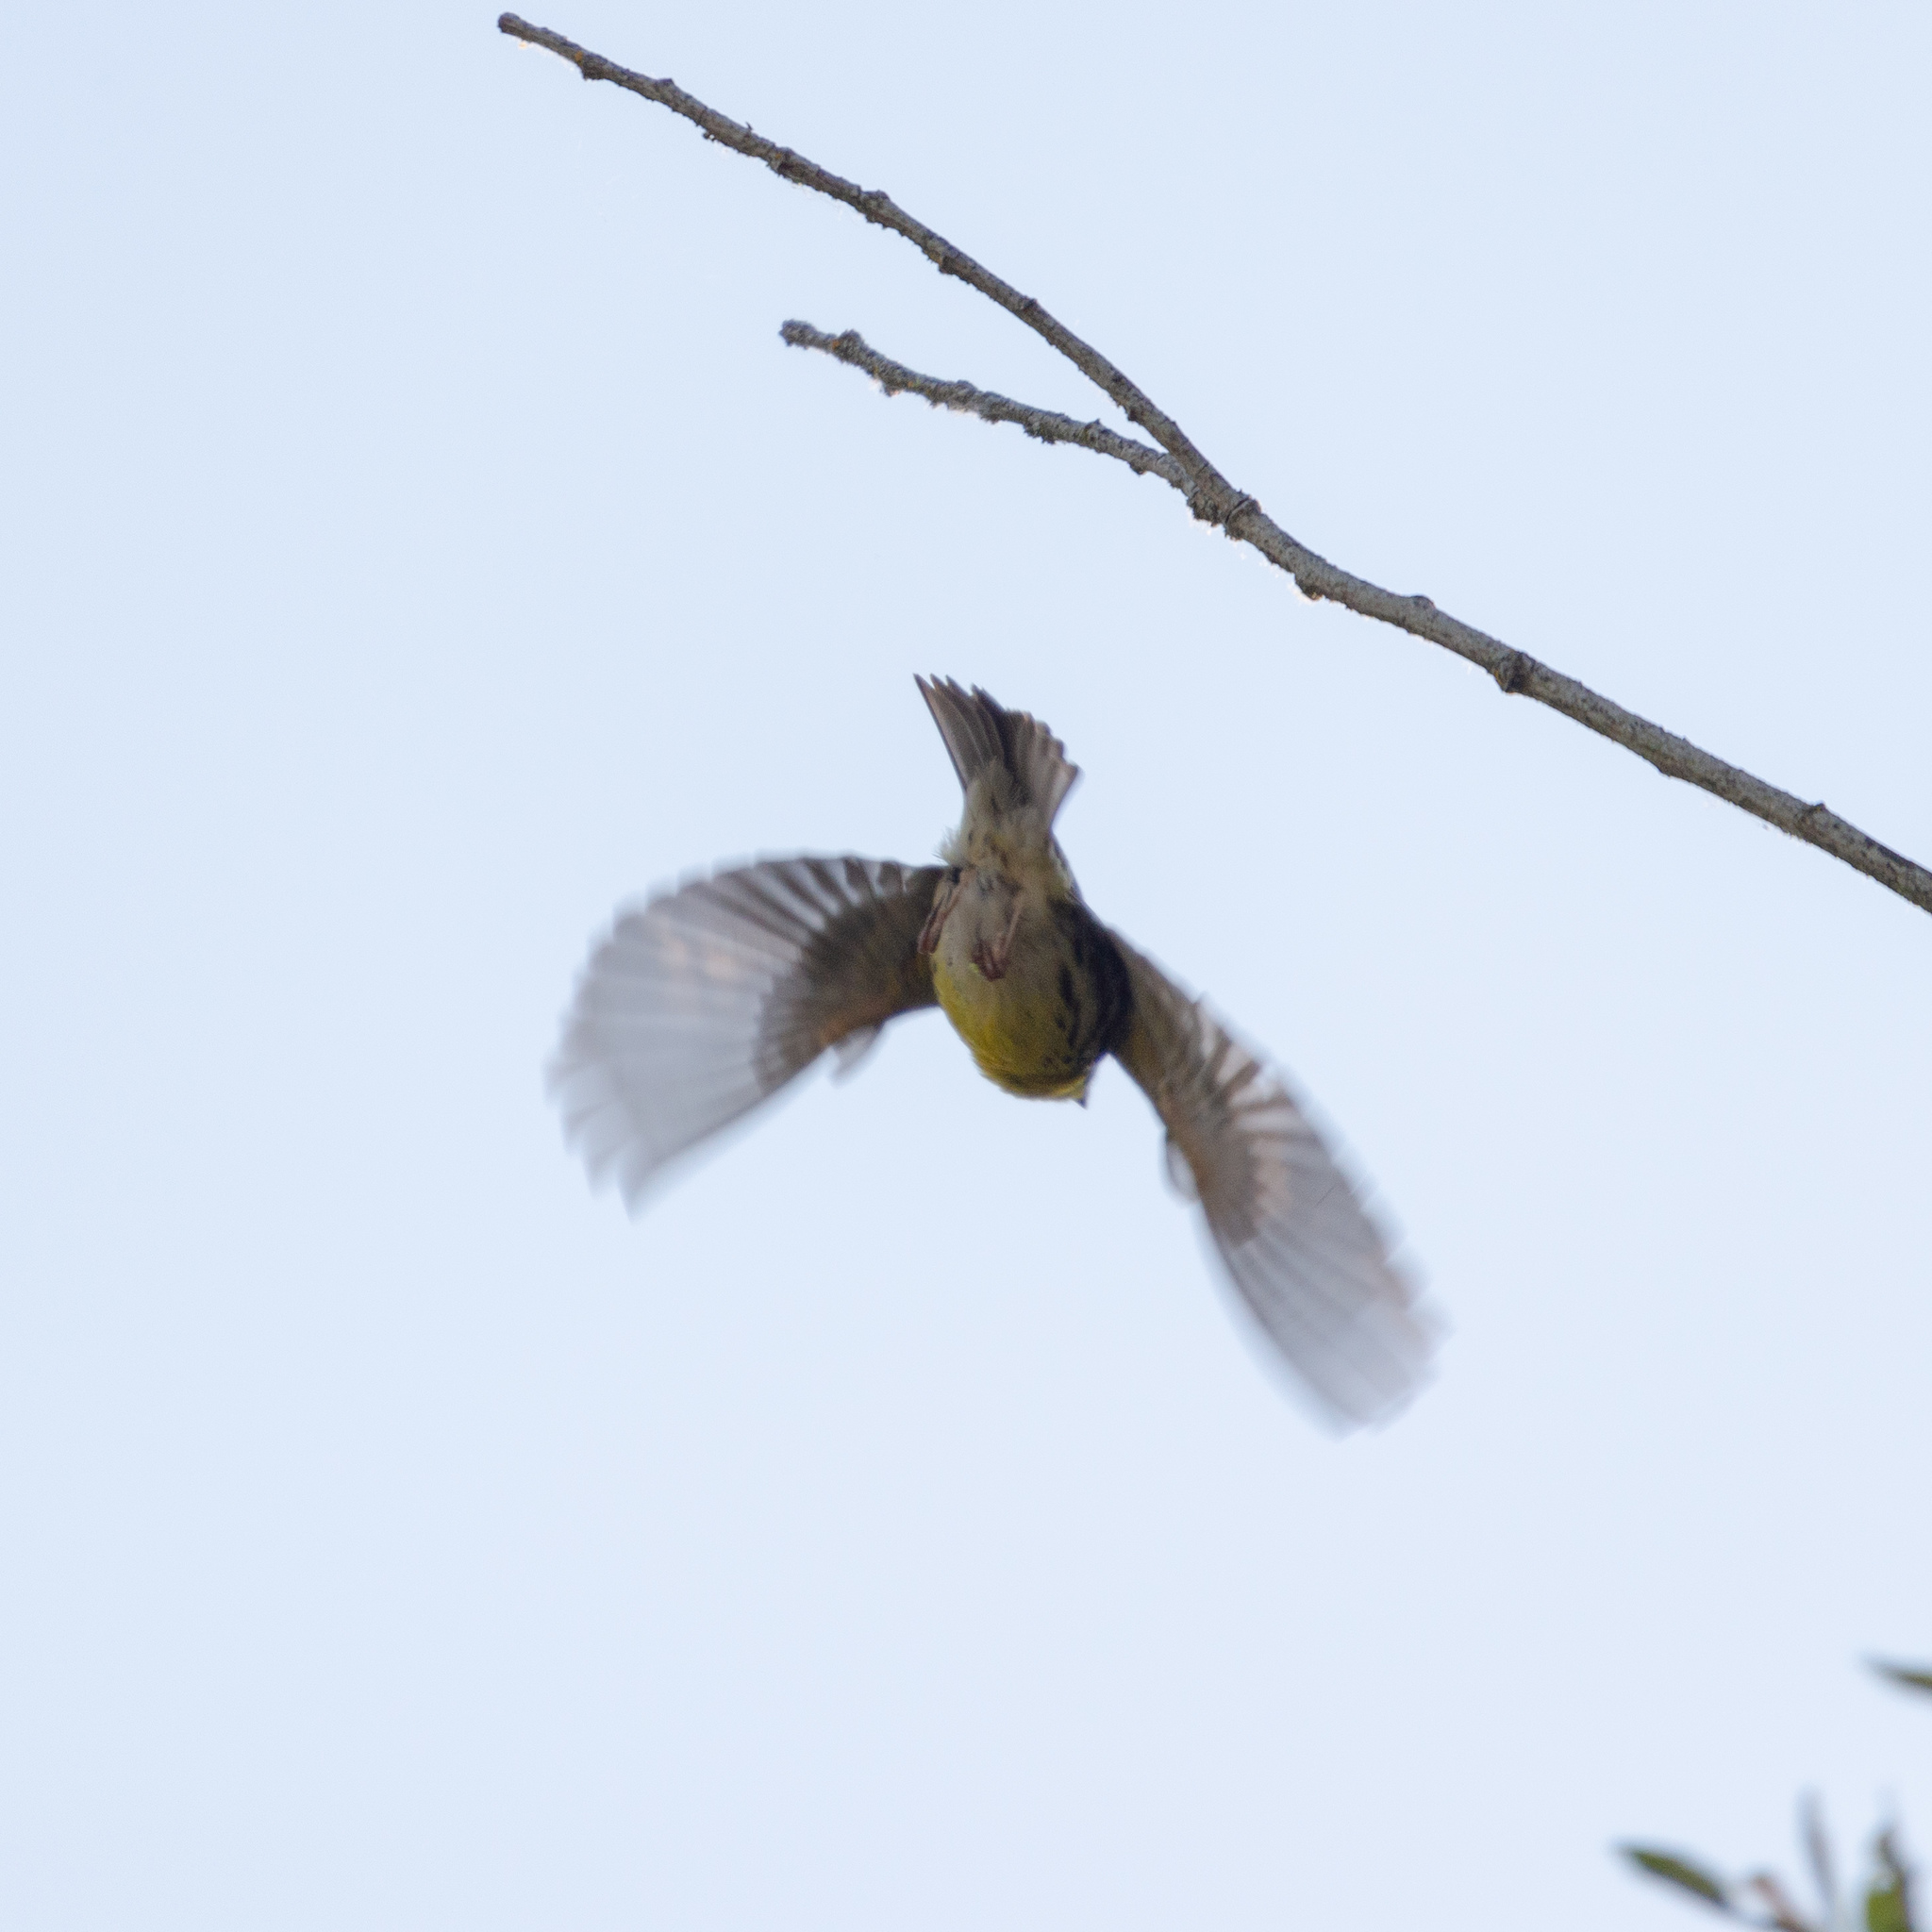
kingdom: Animalia
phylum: Chordata
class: Aves
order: Passeriformes
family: Fringillidae
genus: Serinus
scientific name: Serinus serinus
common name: European serin
